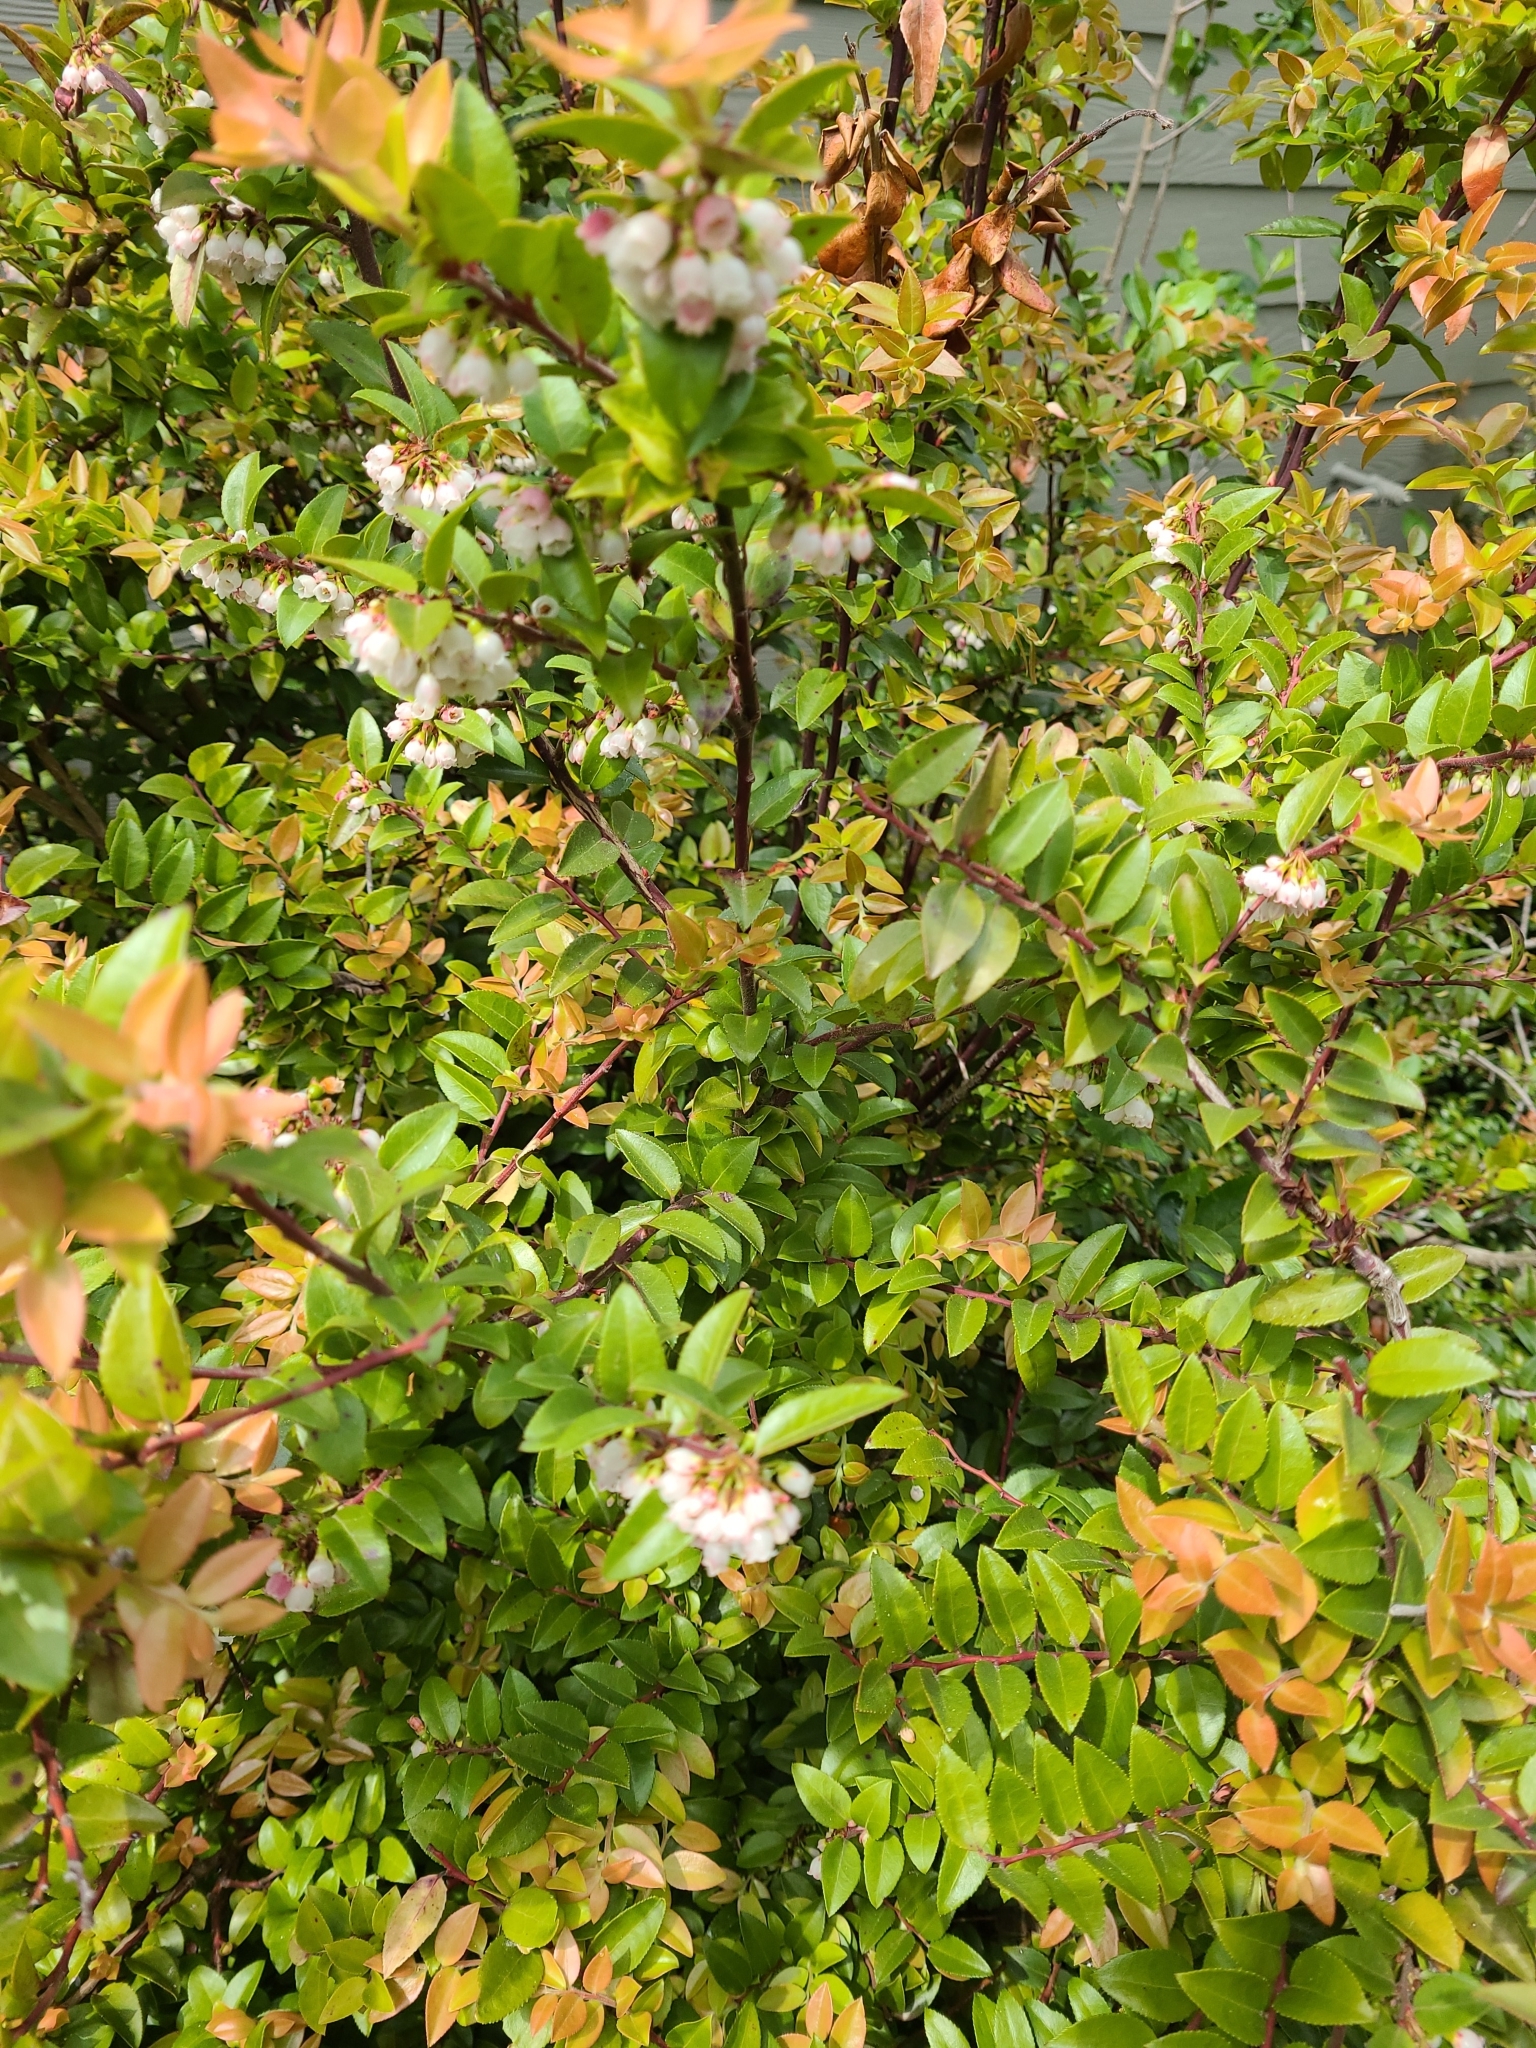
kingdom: Plantae
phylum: Tracheophyta
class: Magnoliopsida
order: Ericales
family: Ericaceae
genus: Vaccinium
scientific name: Vaccinium ovatum
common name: California-huckleberry
